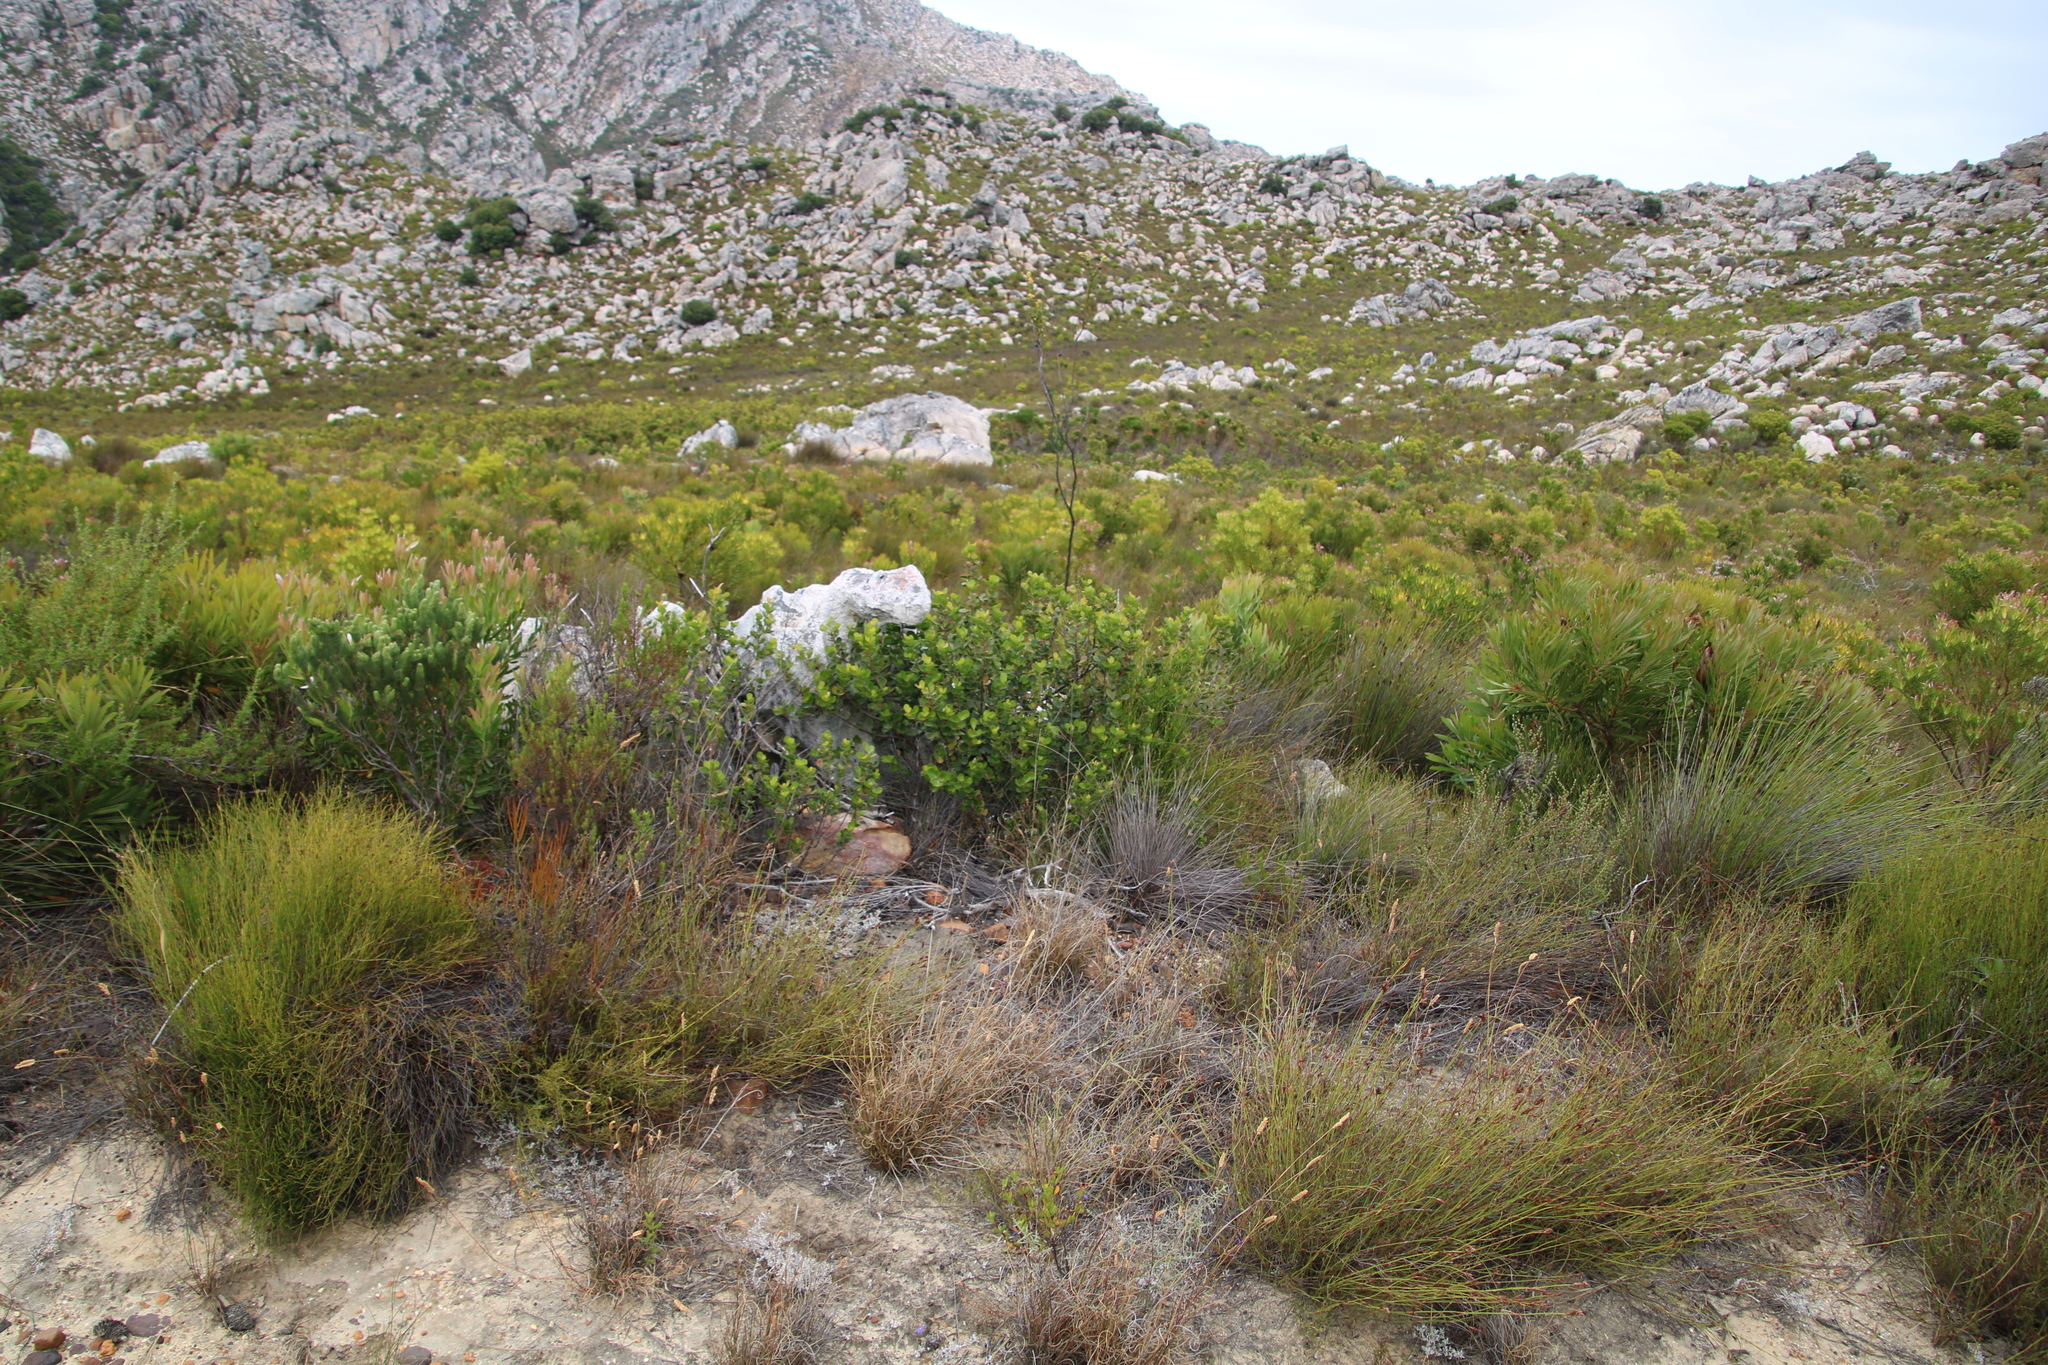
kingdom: Plantae
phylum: Tracheophyta
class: Magnoliopsida
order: Sapindales
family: Anacardiaceae
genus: Searsia
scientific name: Searsia lucida
